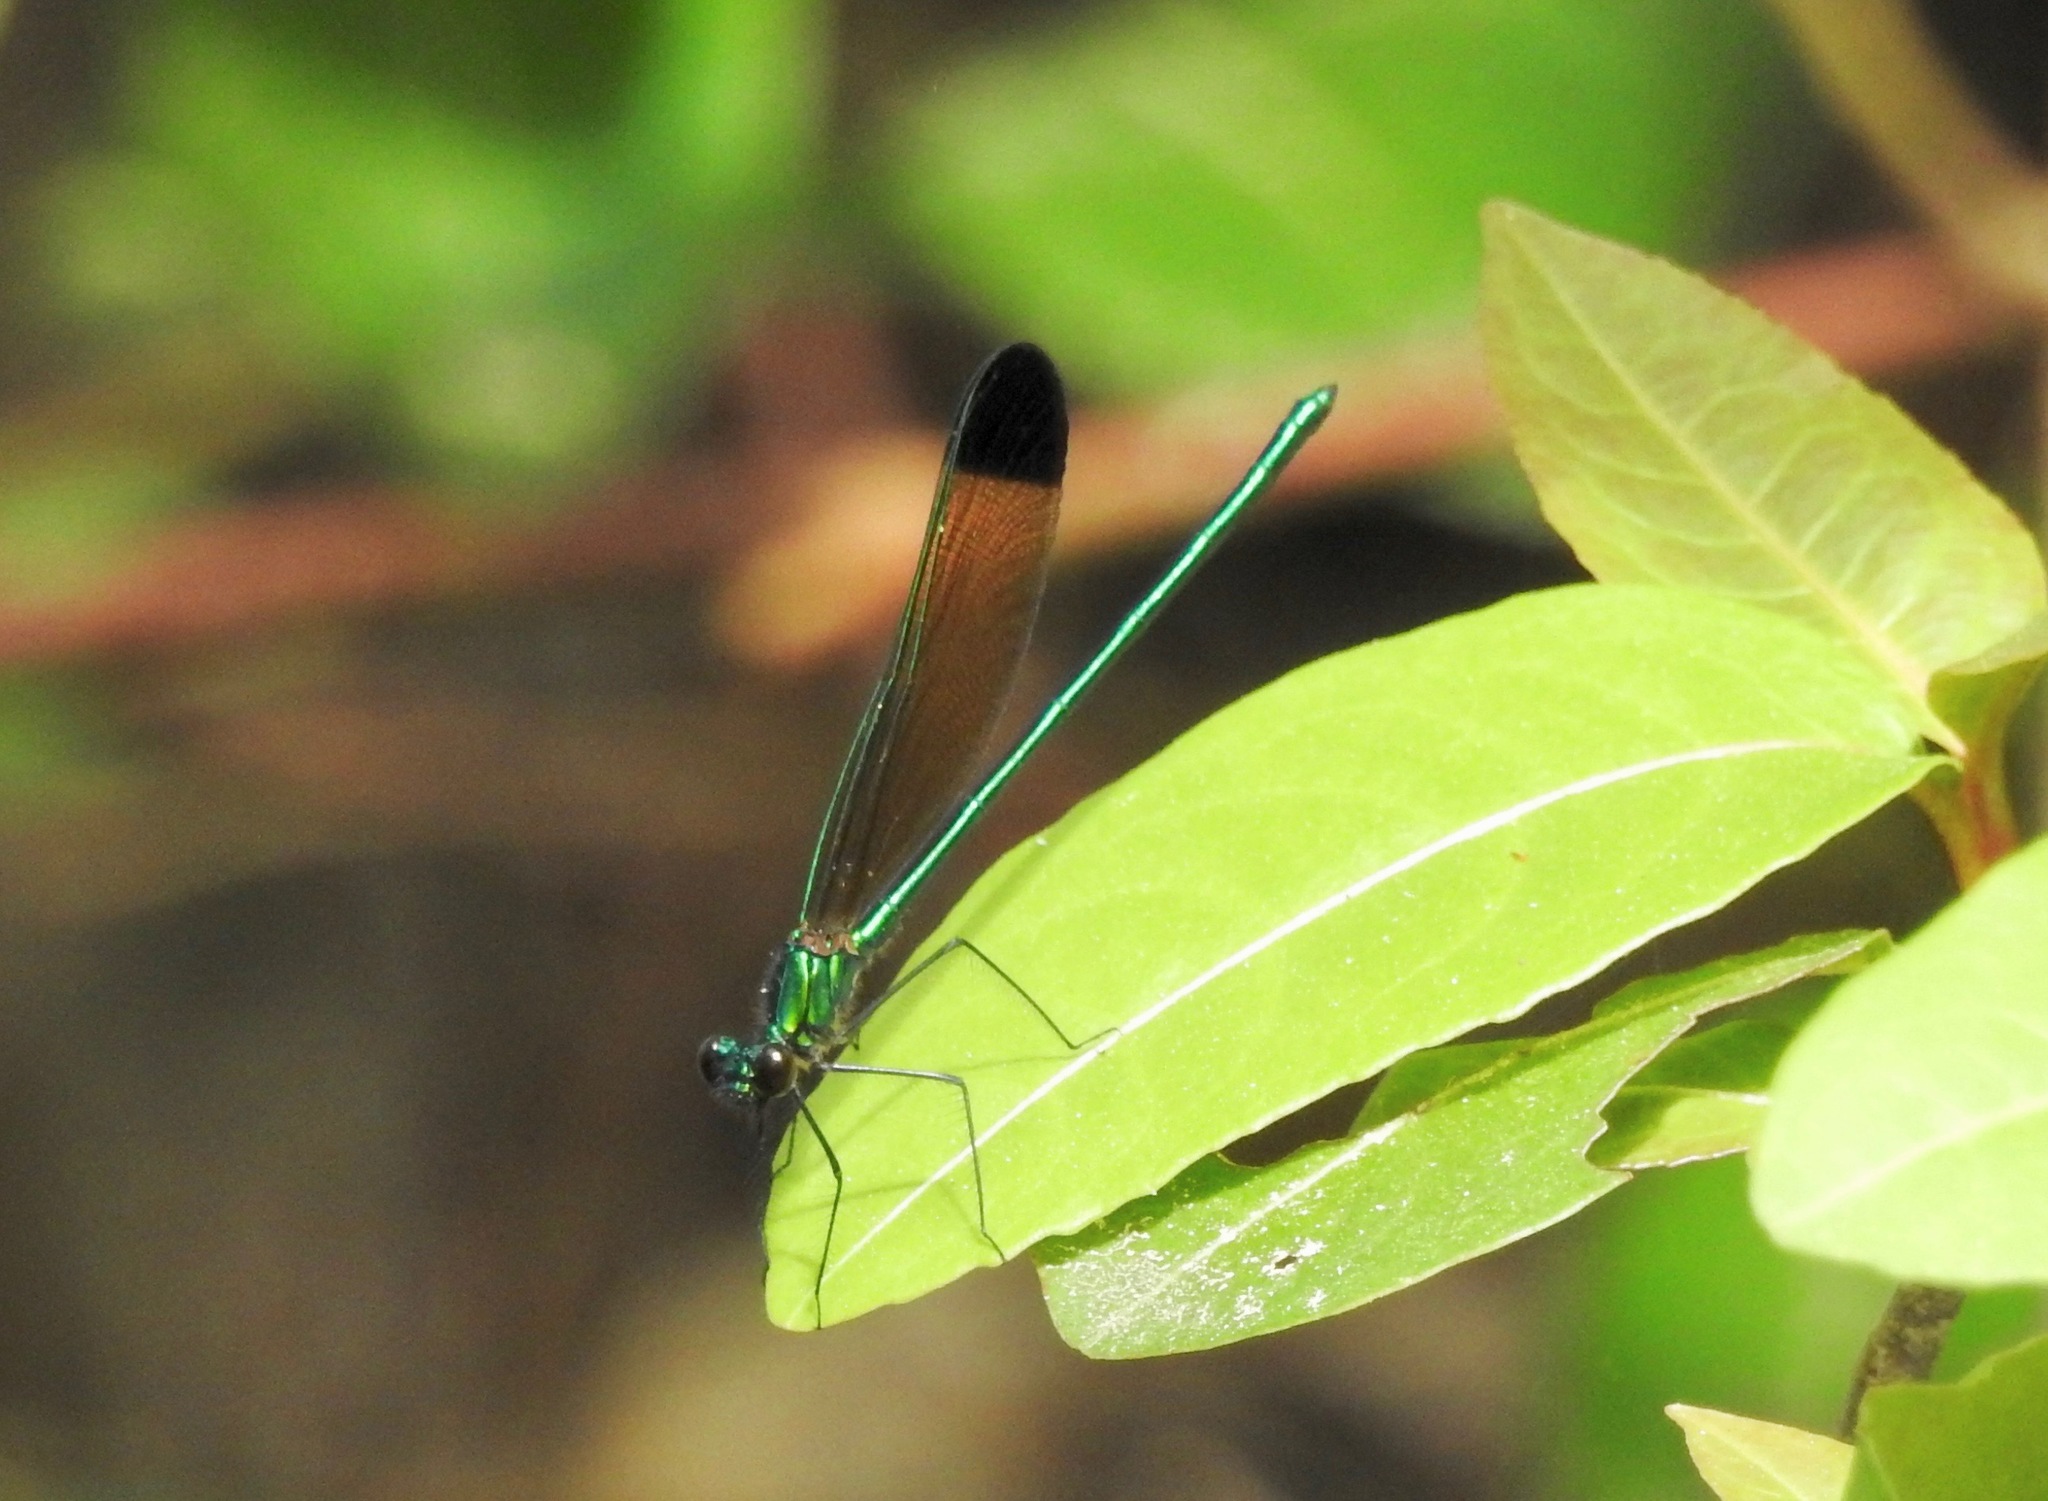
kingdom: Animalia
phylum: Arthropoda
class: Insecta
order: Odonata
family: Calopterygidae
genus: Calopteryx
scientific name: Calopteryx dimidiata
